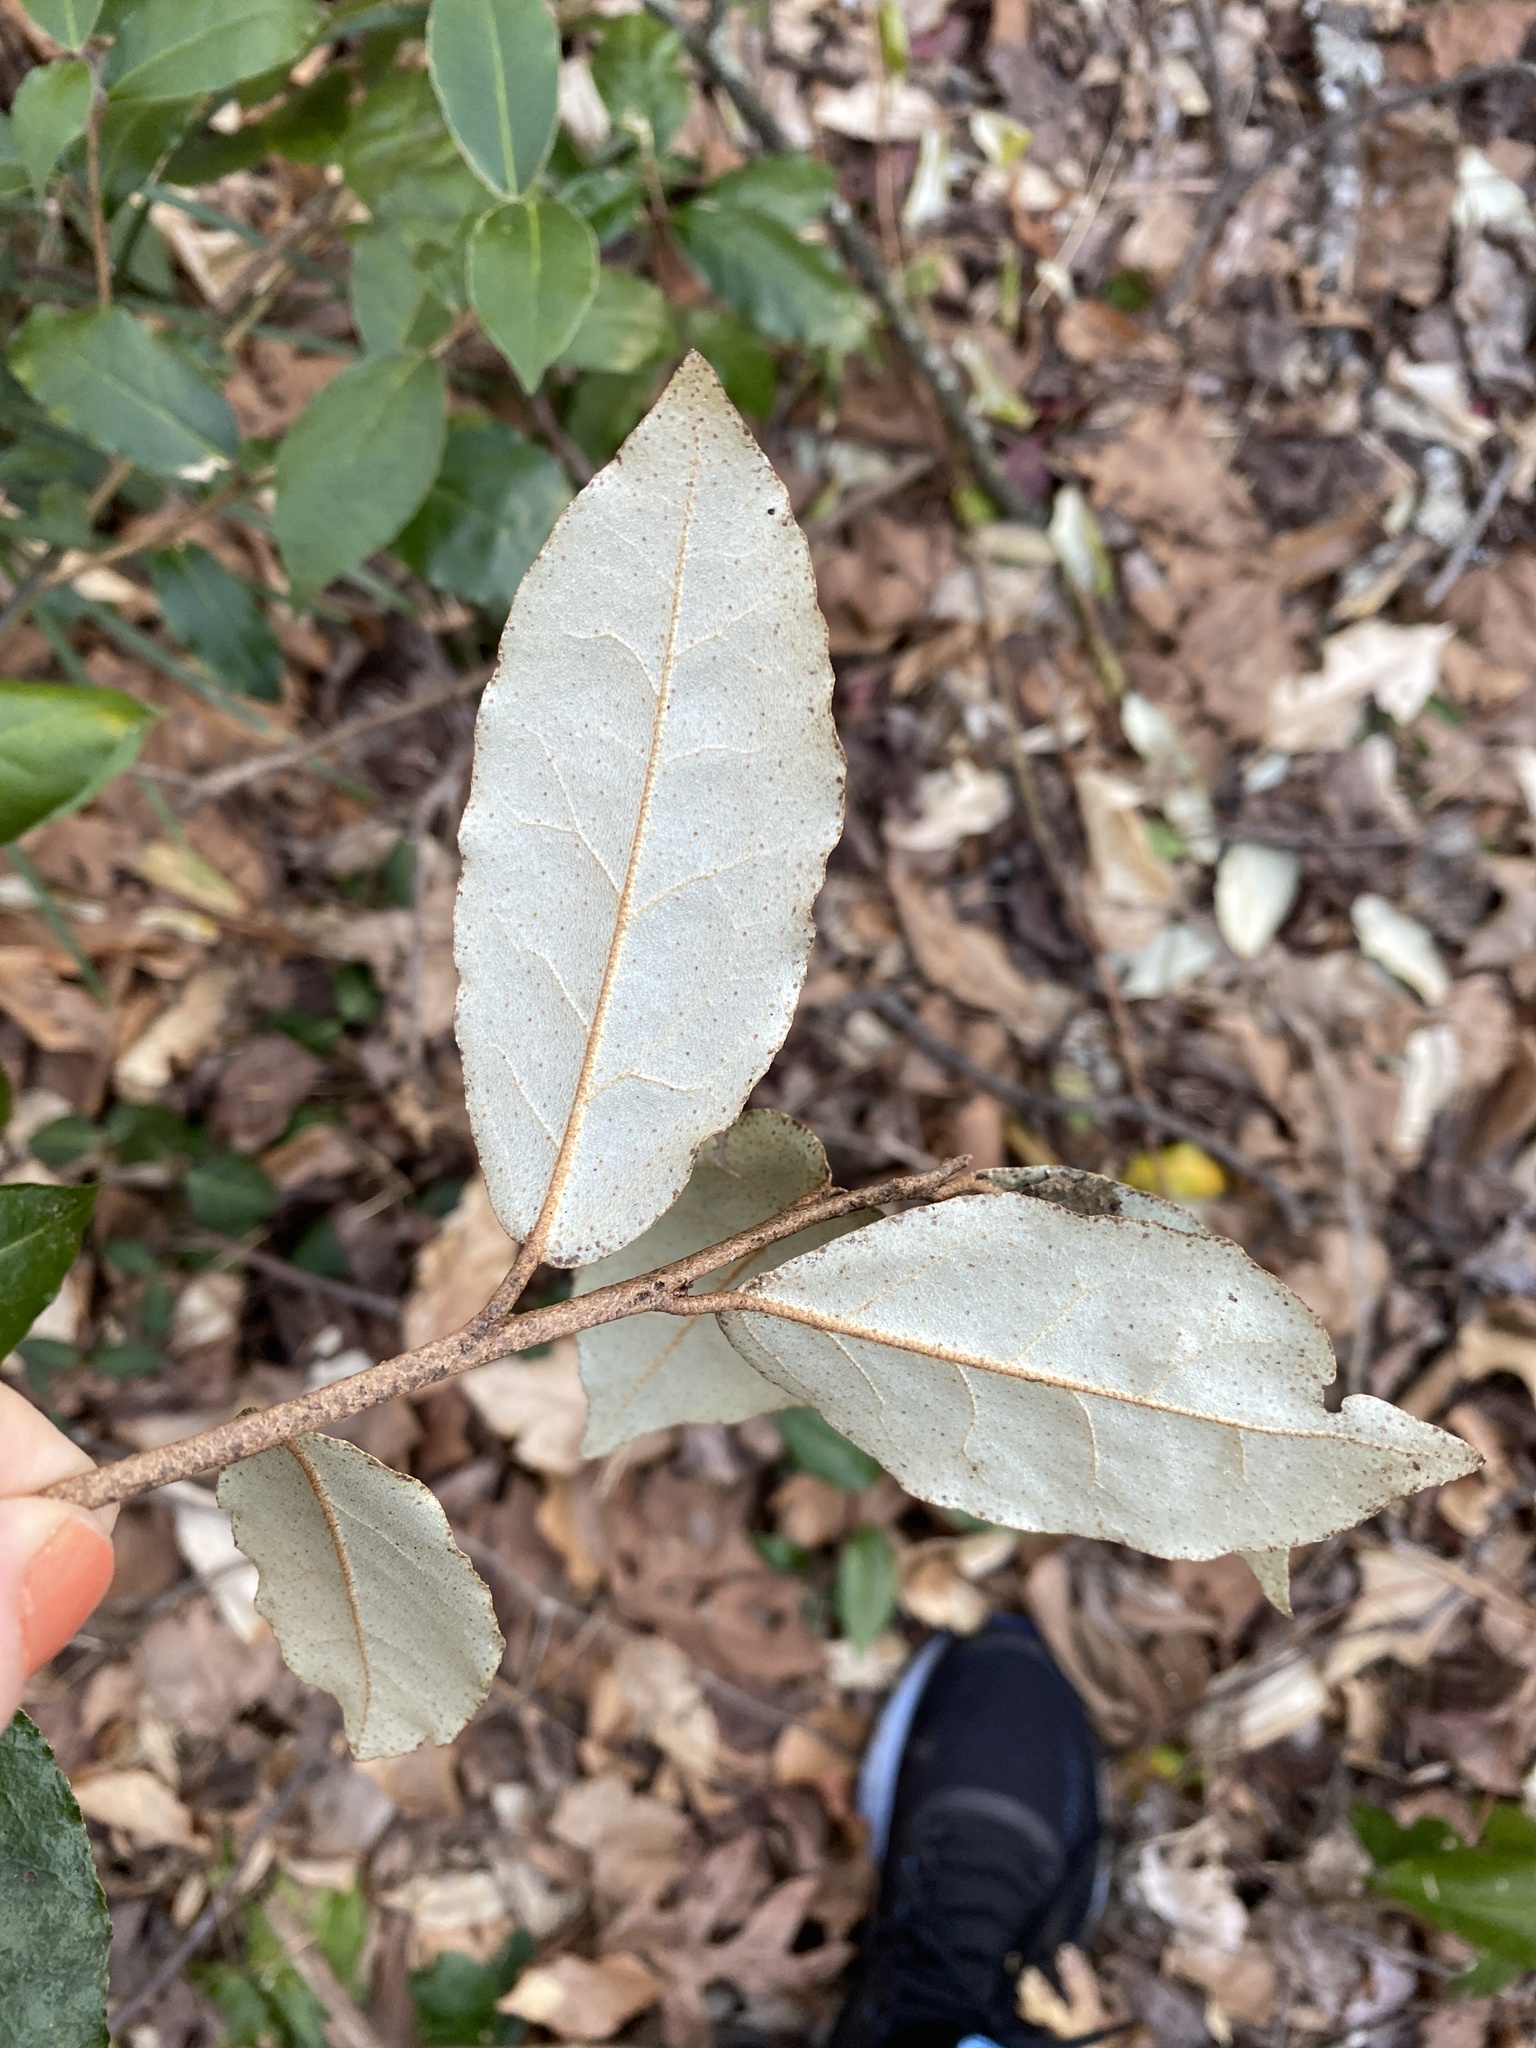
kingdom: Plantae
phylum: Tracheophyta
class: Magnoliopsida
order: Rosales
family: Elaeagnaceae
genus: Elaeagnus
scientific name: Elaeagnus pungens
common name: Spiny oleaster
